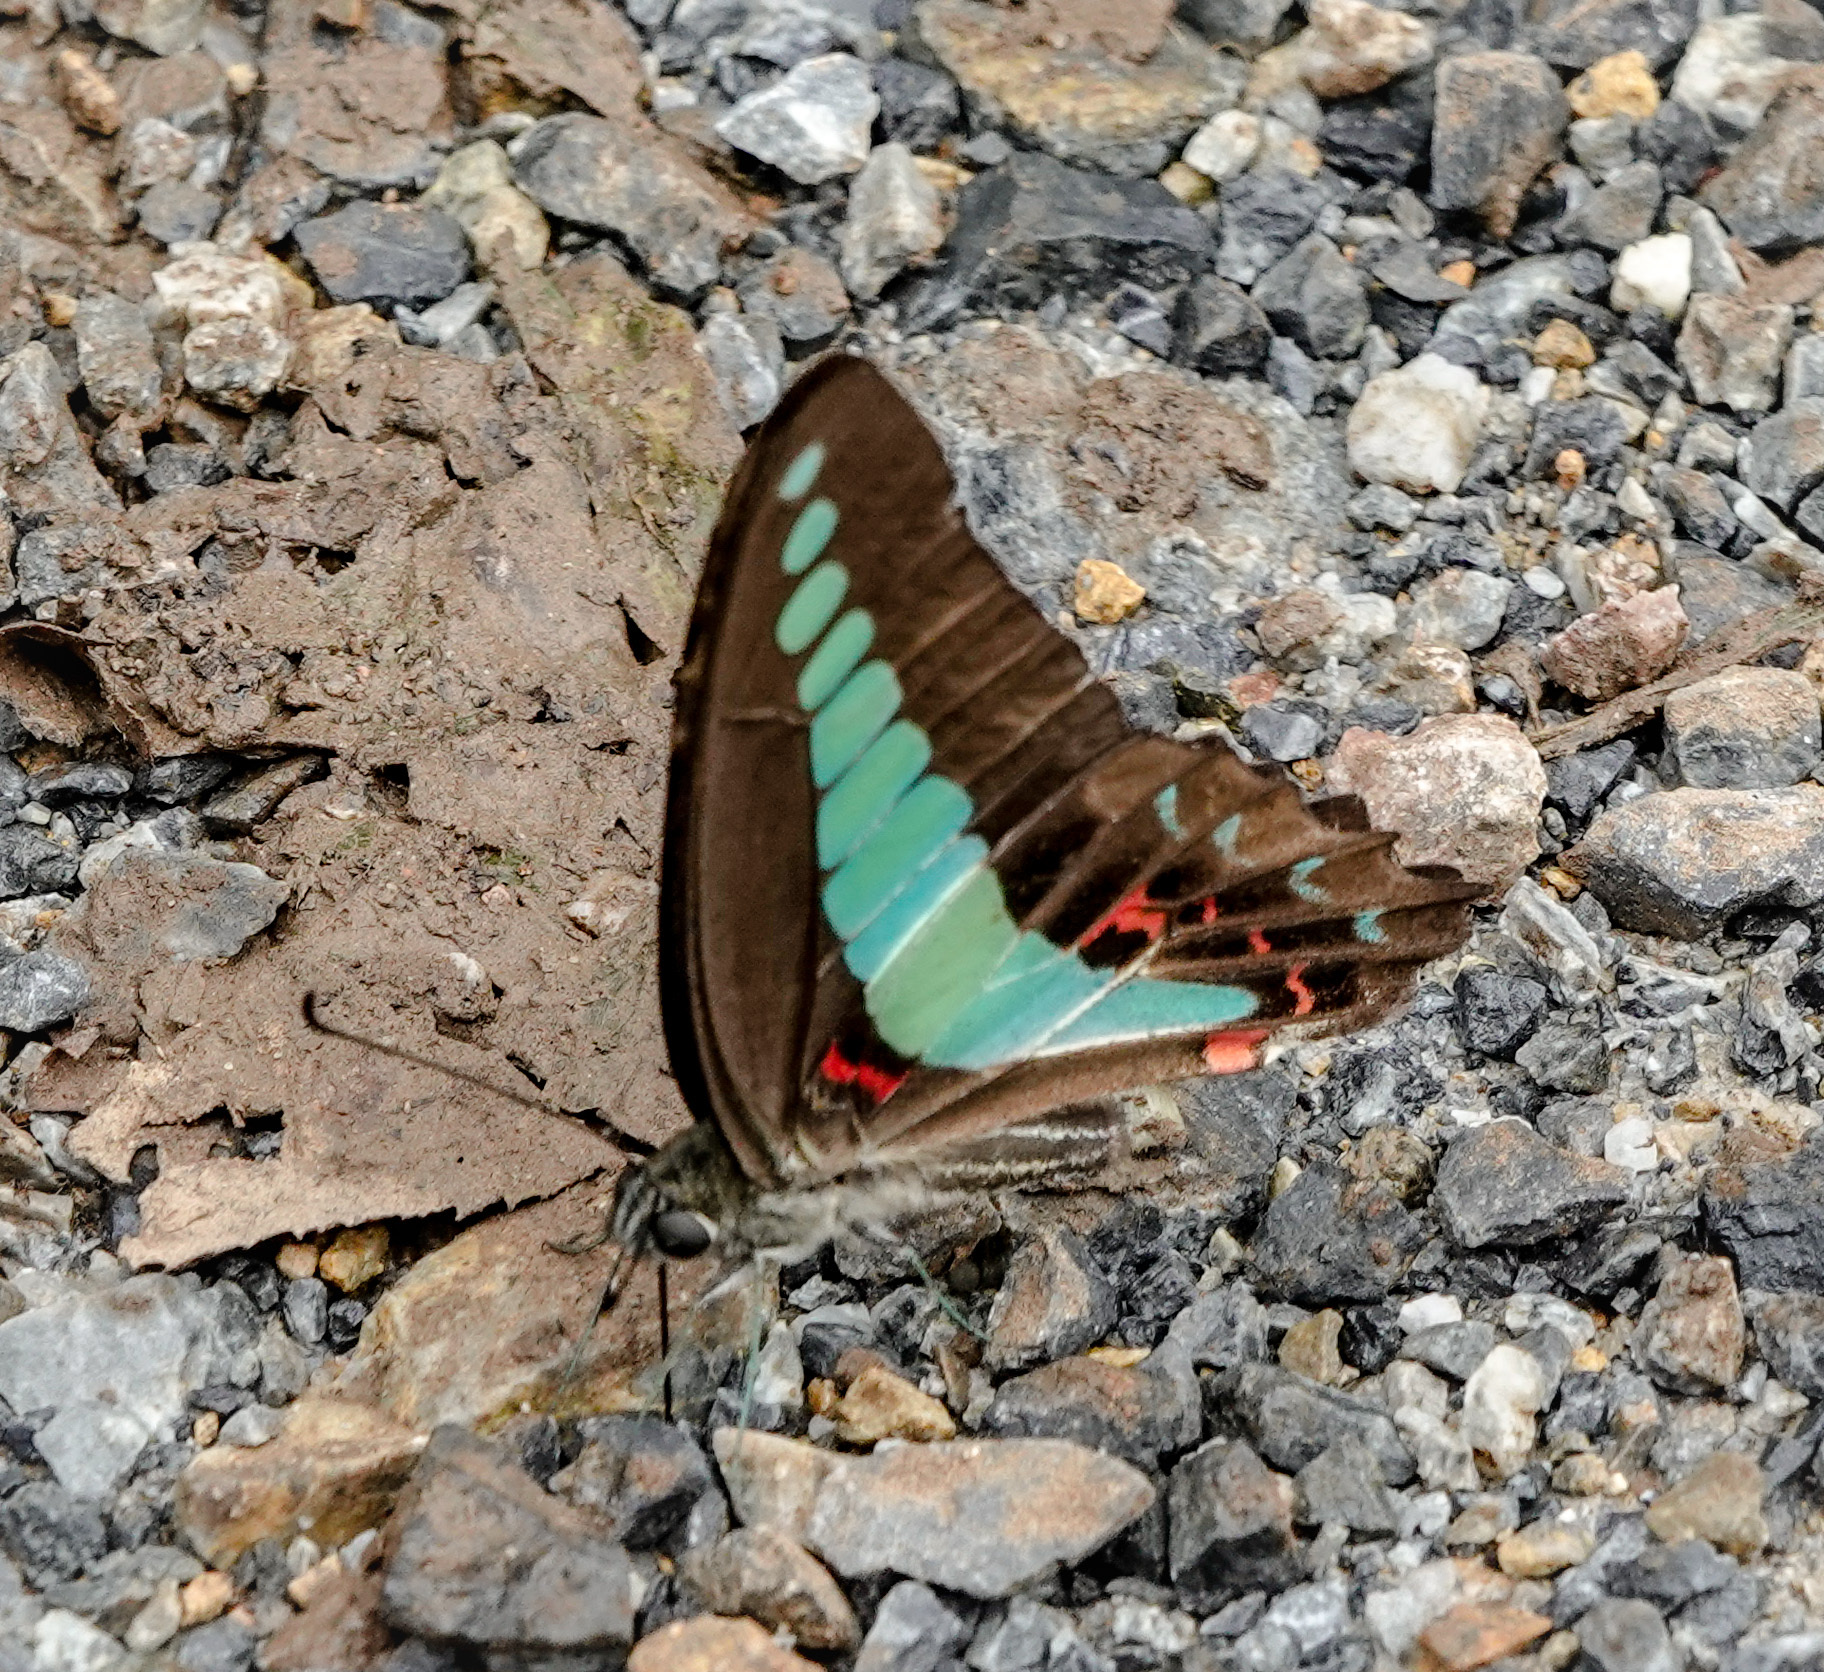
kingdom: Fungi
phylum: Ascomycota
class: Sordariomycetes
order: Microascales
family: Microascaceae
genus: Graphium
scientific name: Graphium sarpedon
